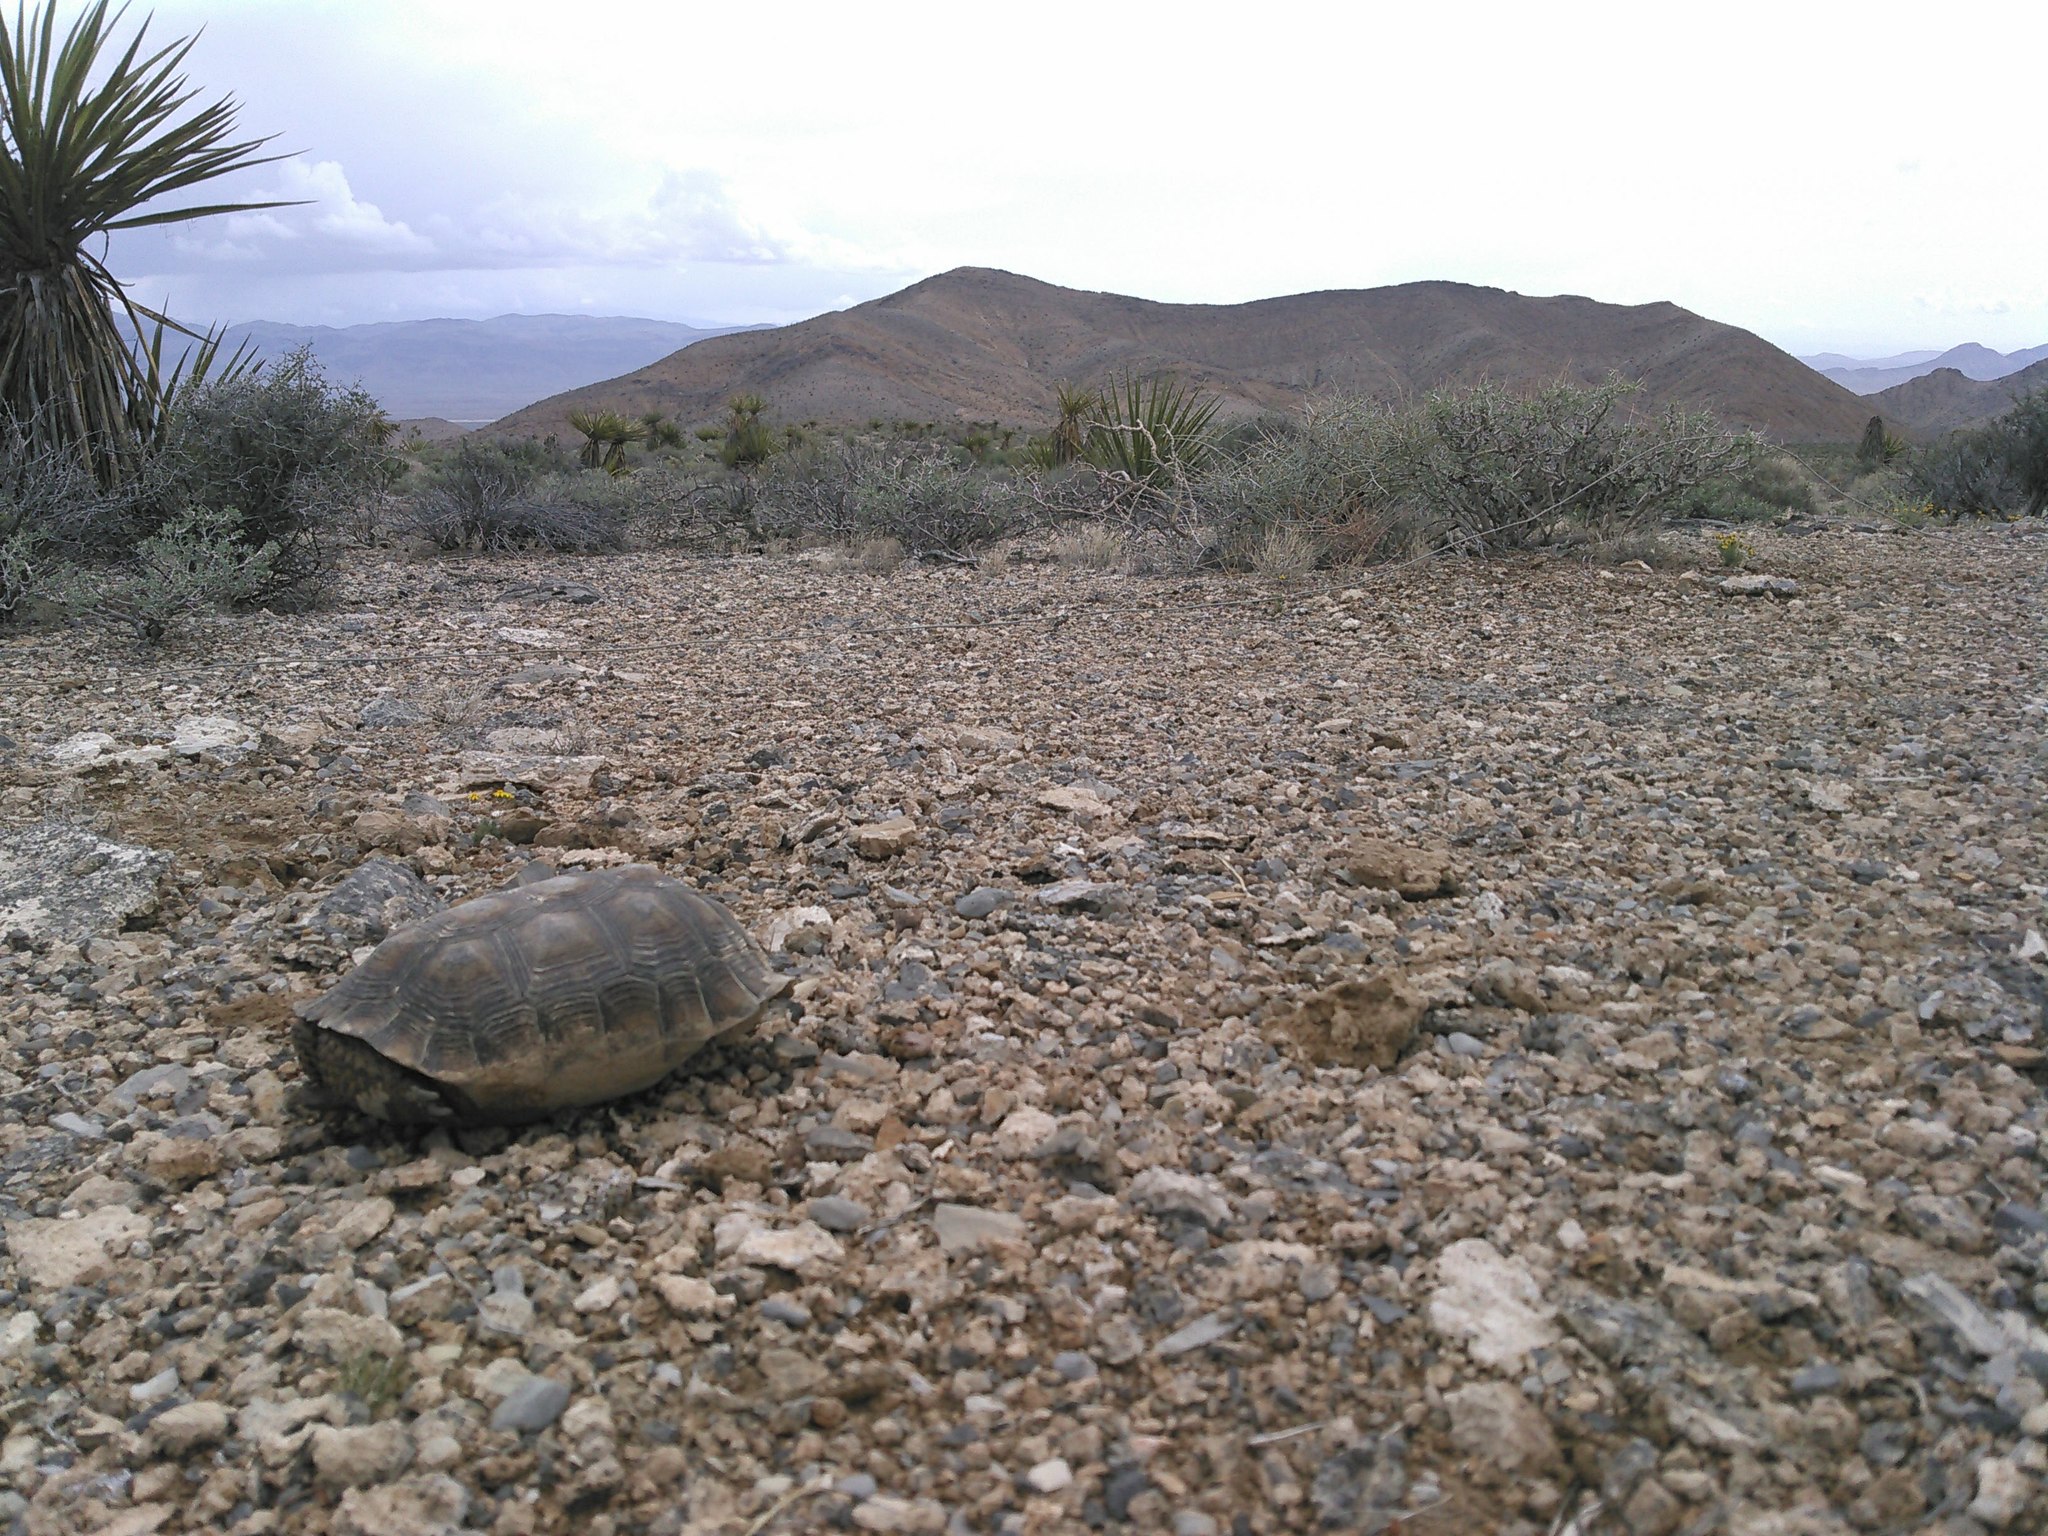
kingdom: Animalia
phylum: Chordata
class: Testudines
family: Testudinidae
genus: Gopherus
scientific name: Gopherus agassizii
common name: Mojave desert tortoise
